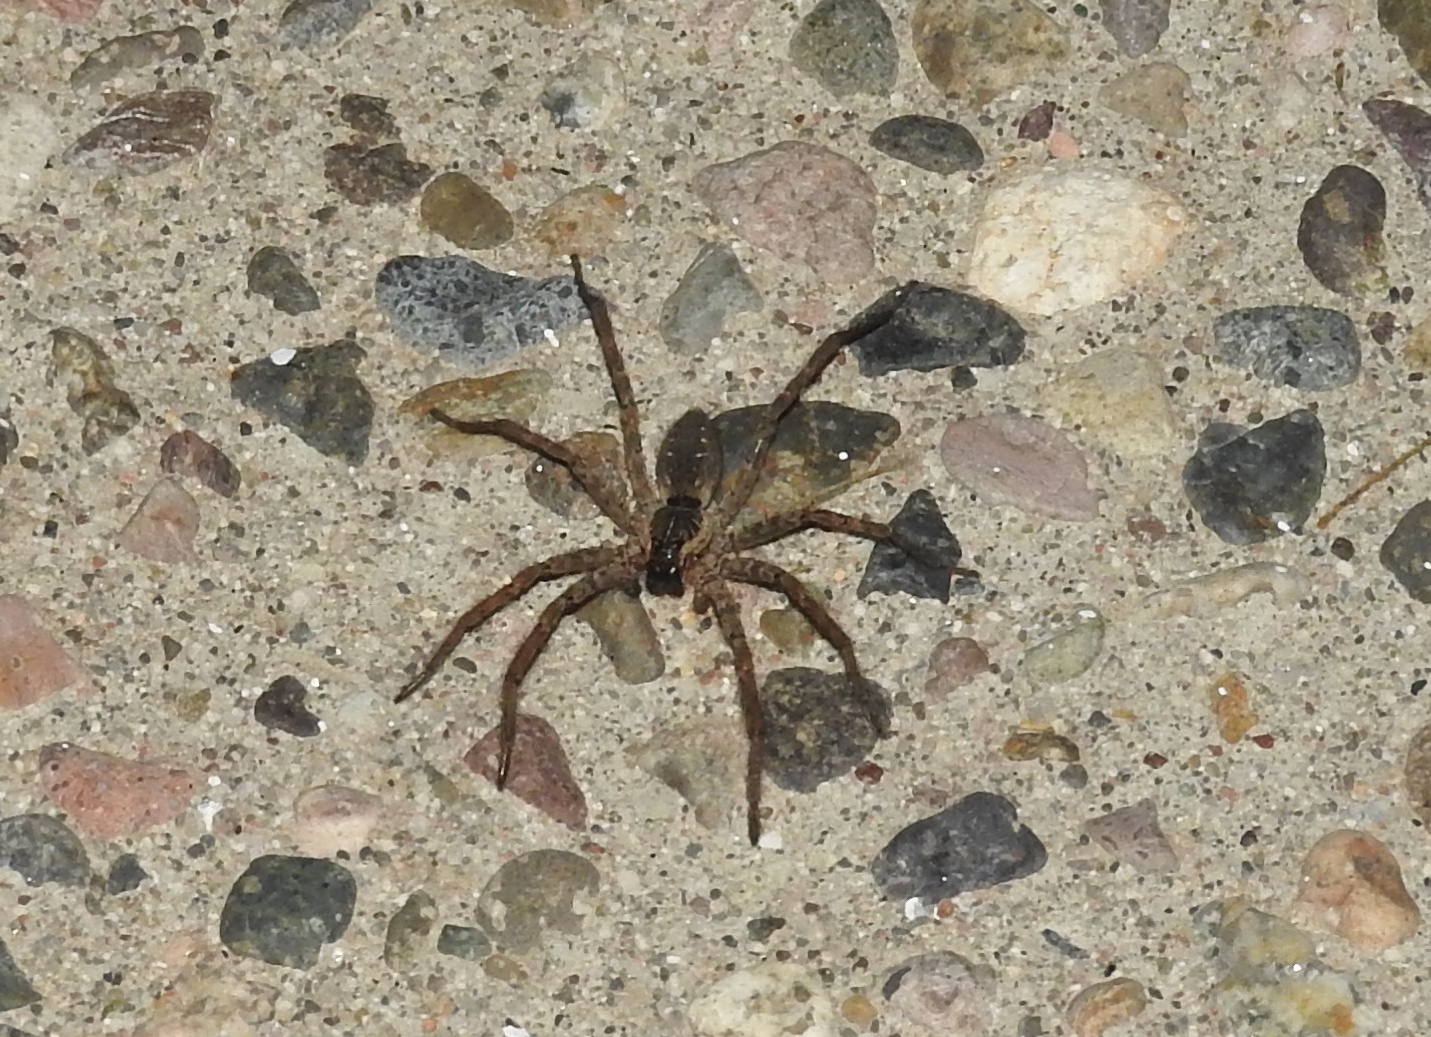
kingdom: Animalia
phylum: Arthropoda
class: Arachnida
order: Araneae
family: Lycosidae
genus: Sosippus
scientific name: Sosippus
